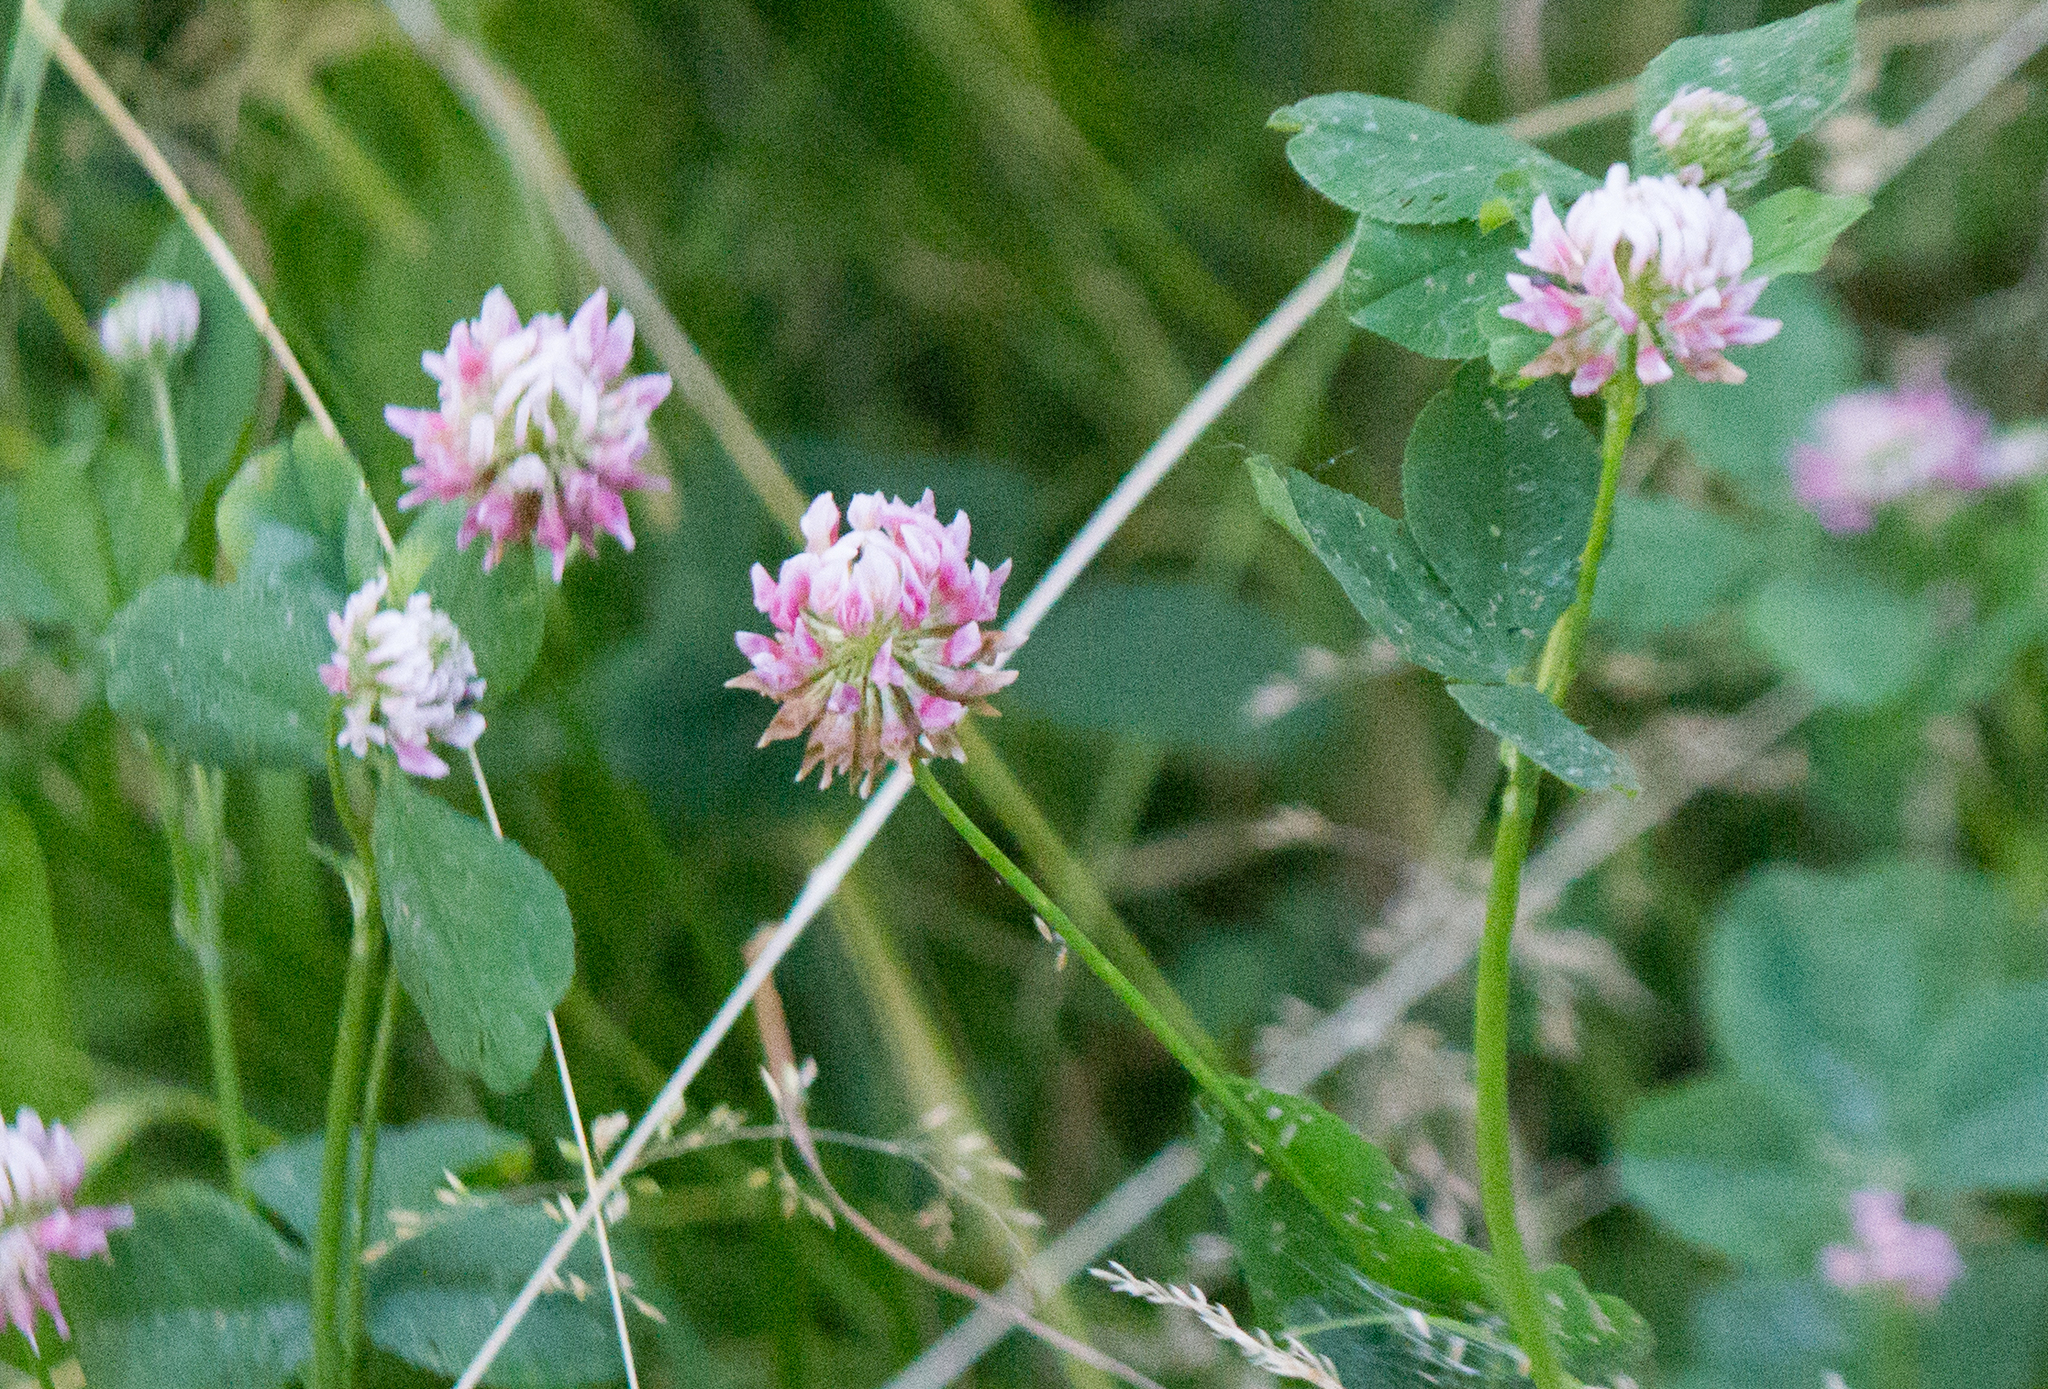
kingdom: Plantae
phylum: Tracheophyta
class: Magnoliopsida
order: Fabales
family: Fabaceae
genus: Trifolium
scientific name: Trifolium hybridum
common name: Alsike clover
